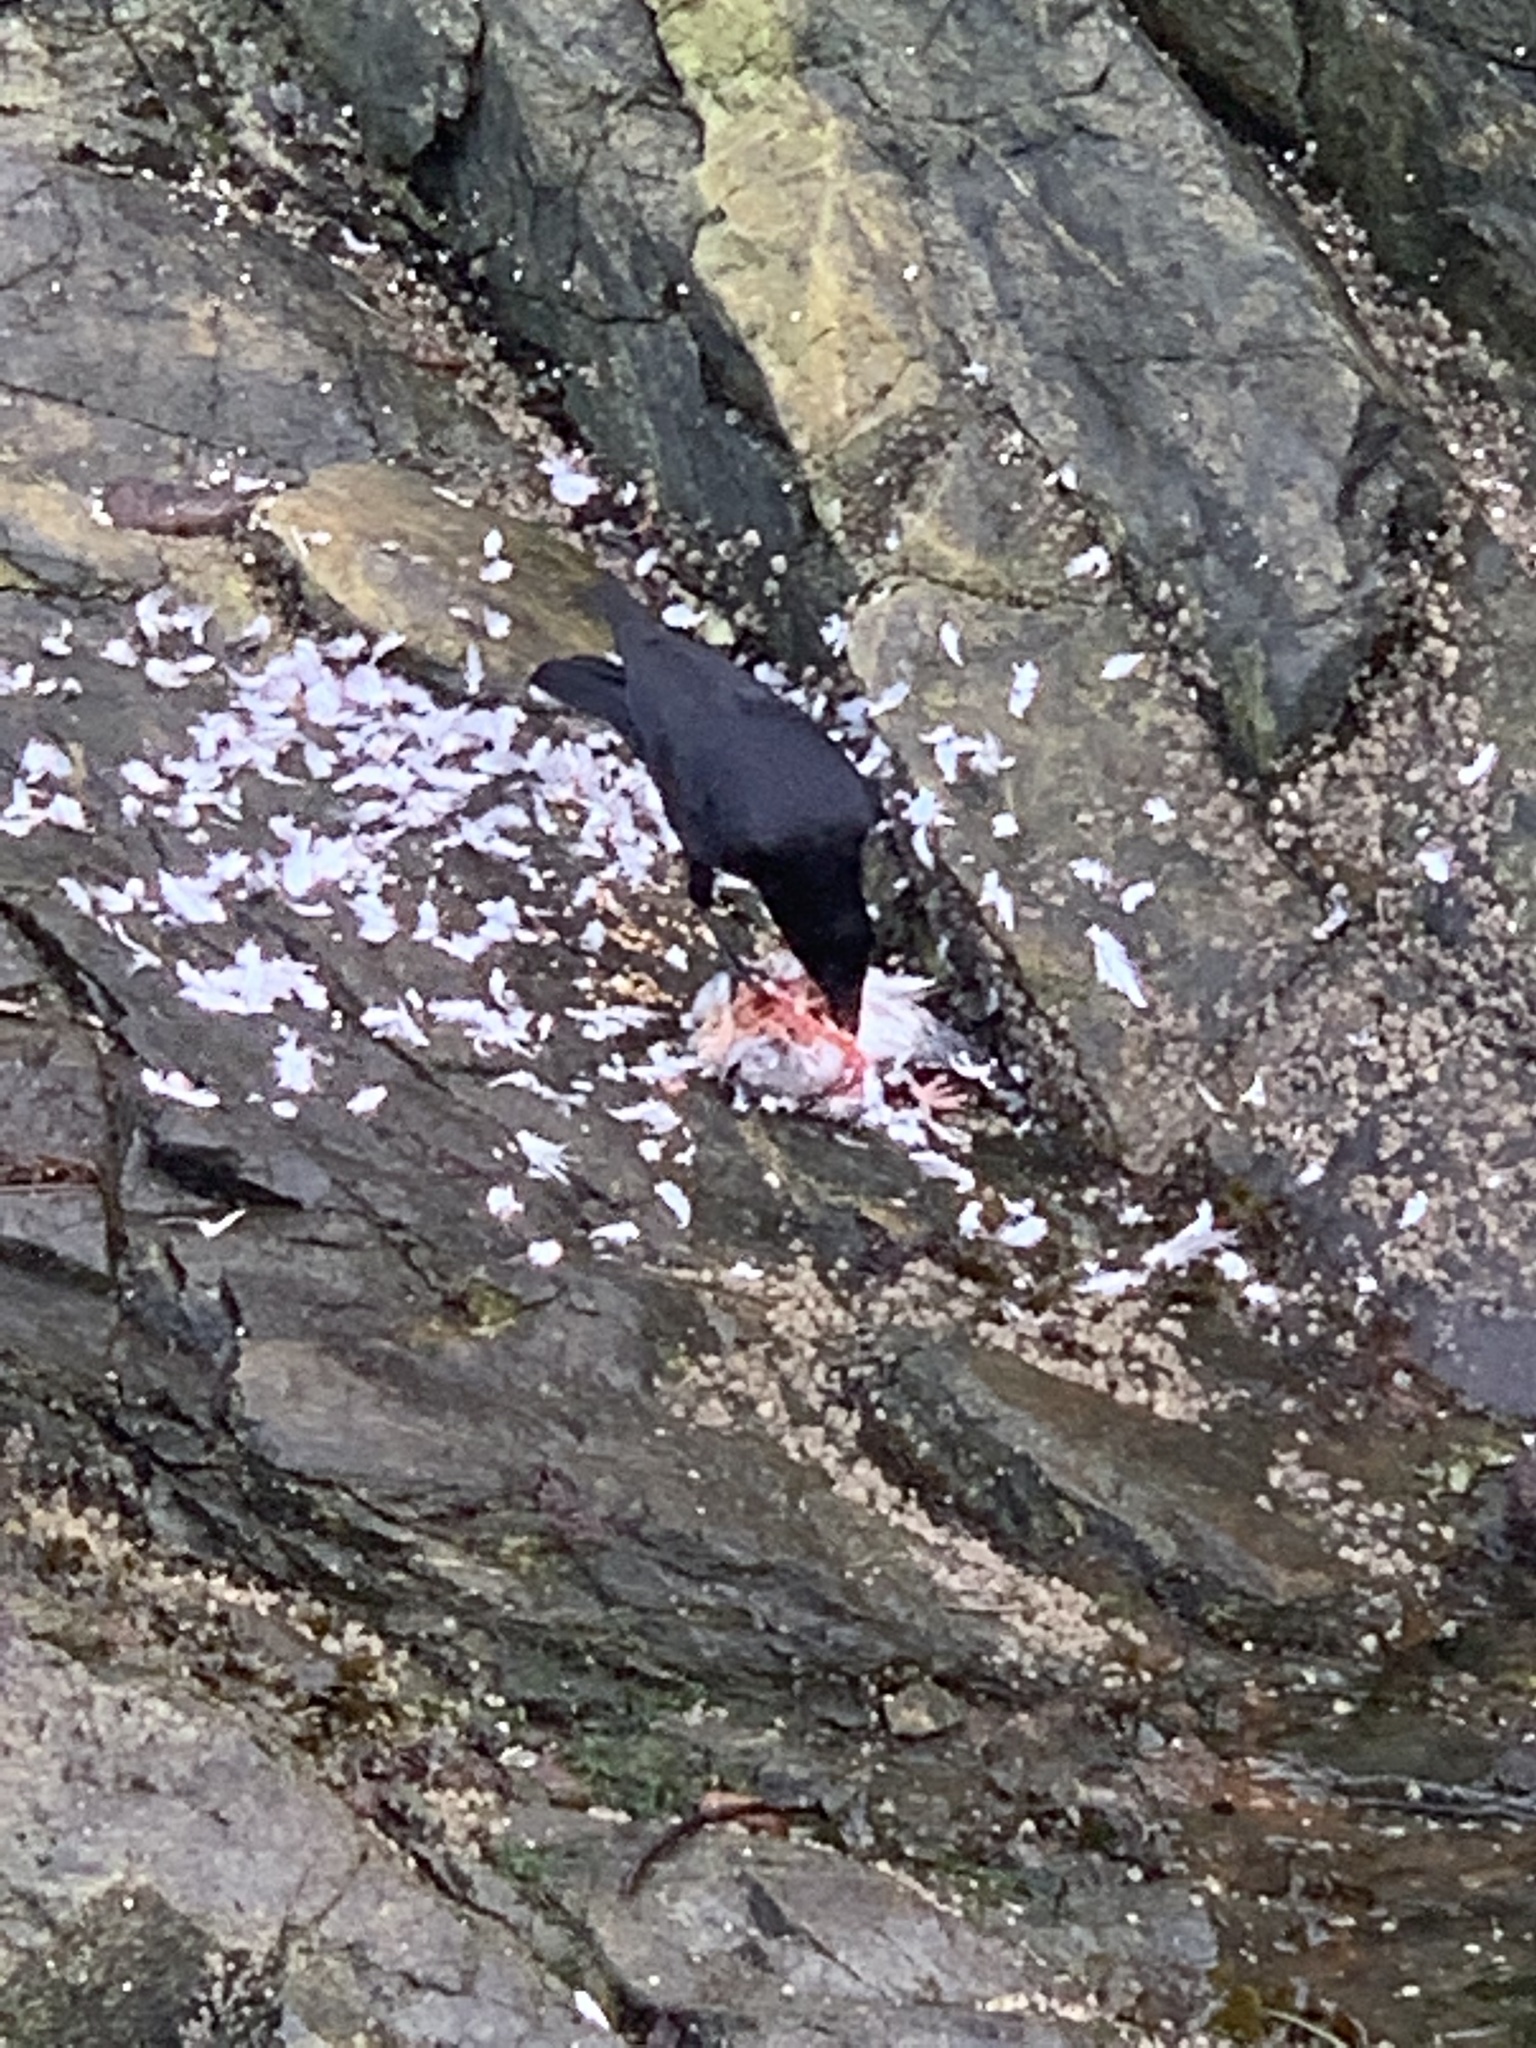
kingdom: Animalia
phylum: Chordata
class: Aves
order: Passeriformes
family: Corvidae
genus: Corvus
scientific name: Corvus brachyrhynchos
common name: American crow
